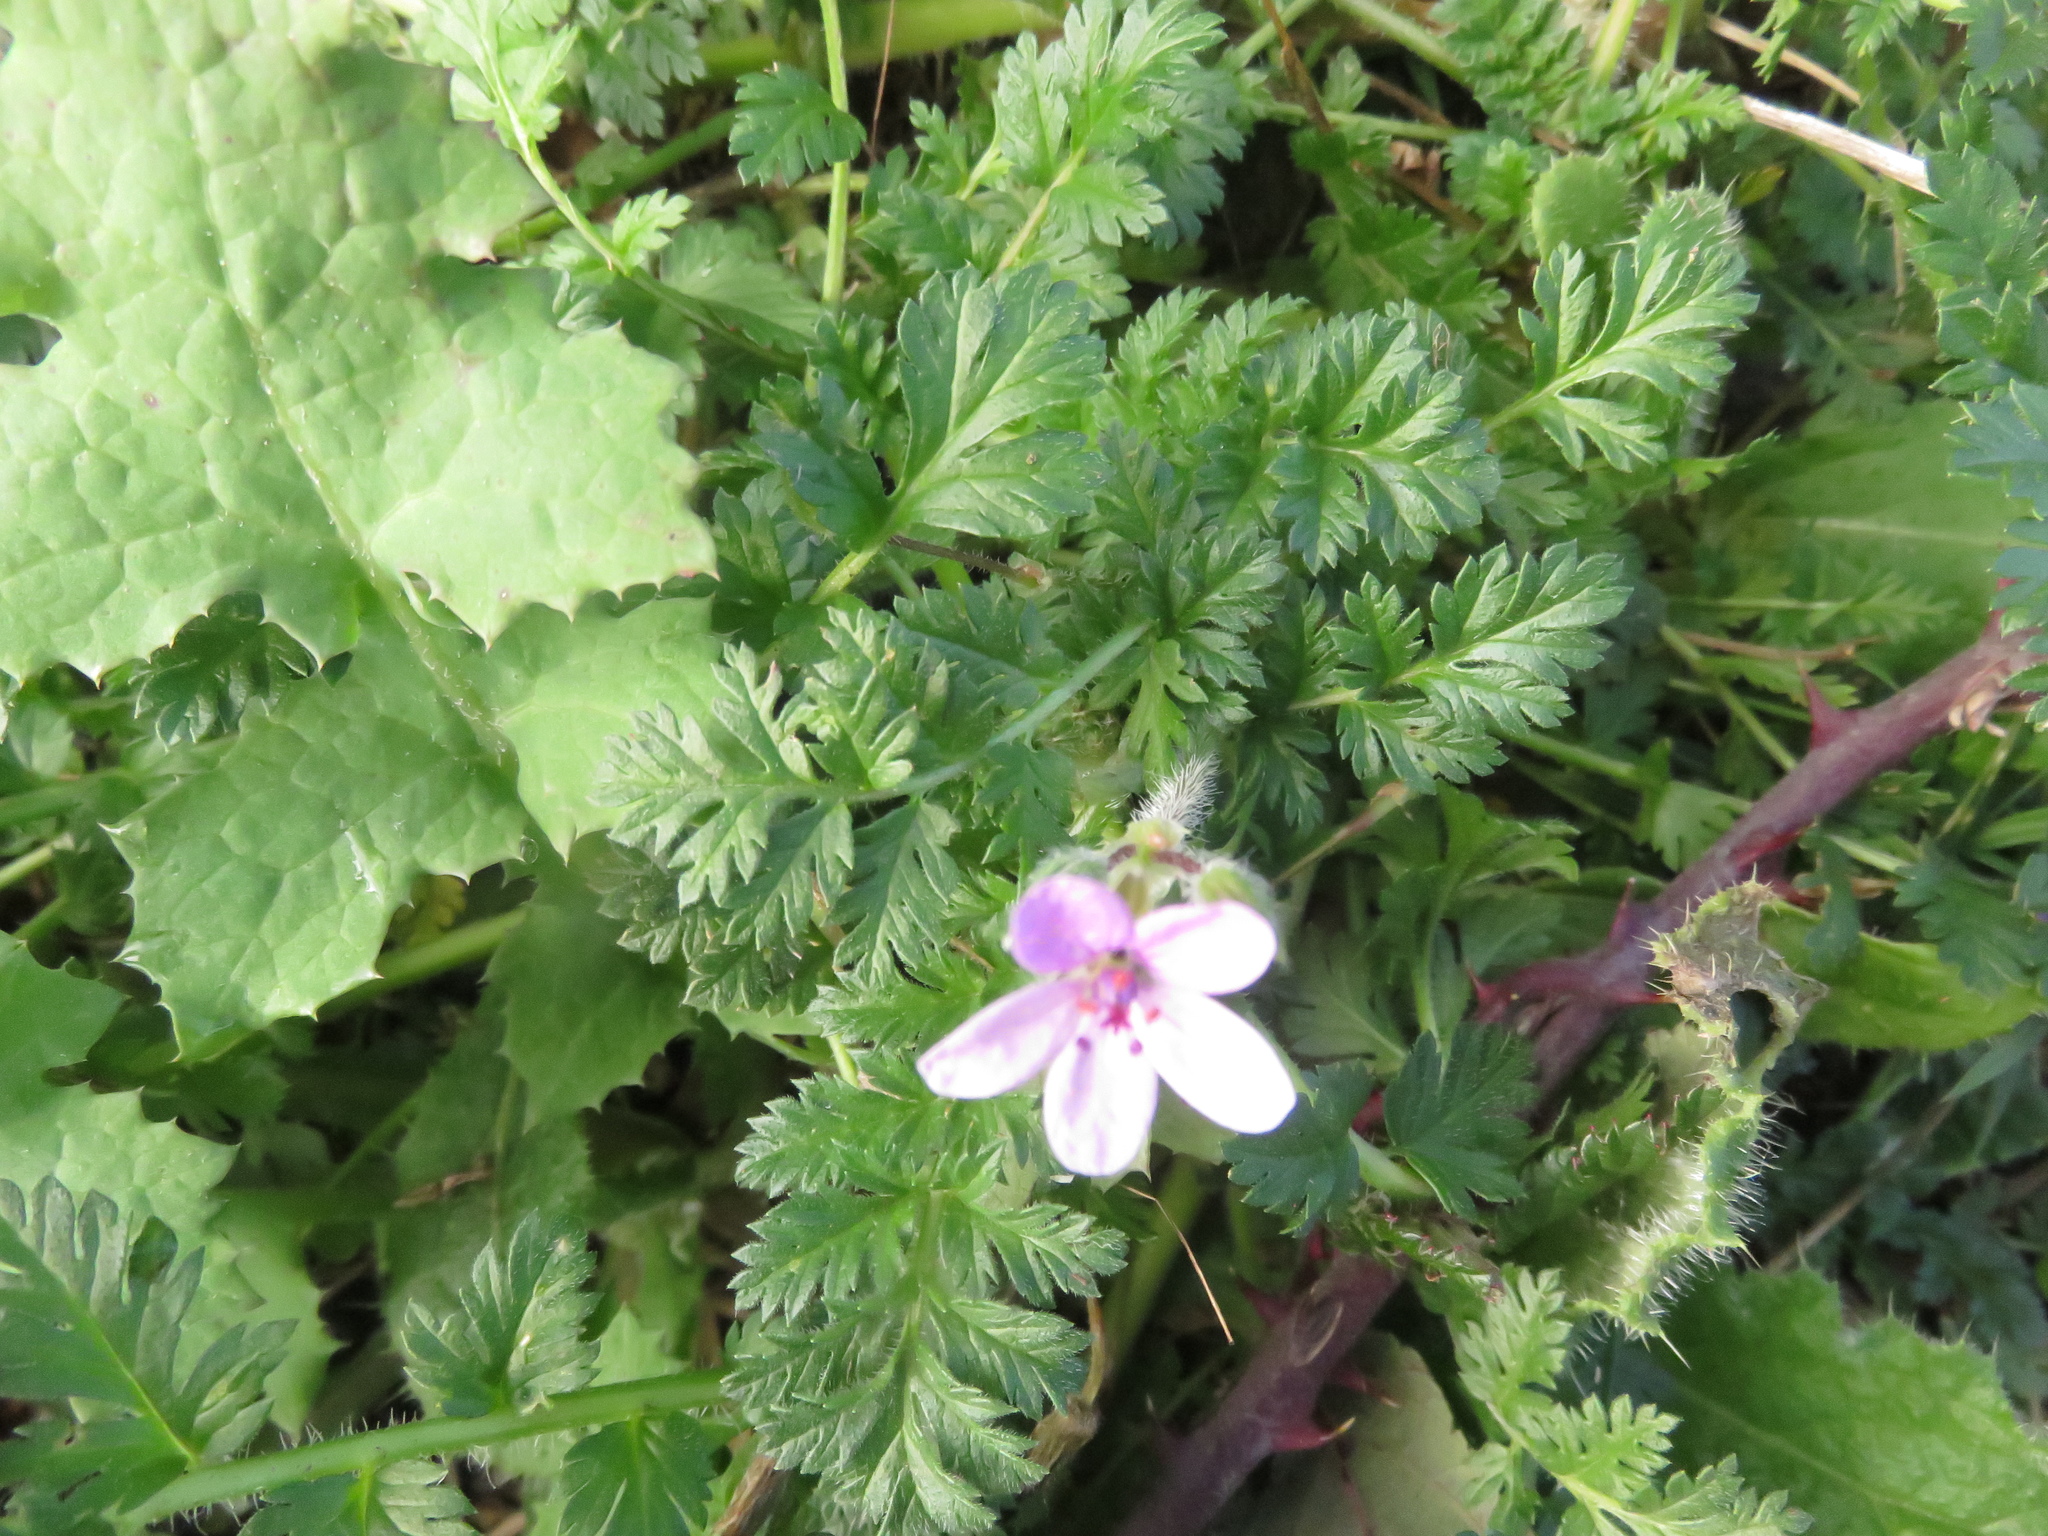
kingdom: Plantae
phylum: Tracheophyta
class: Magnoliopsida
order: Geraniales
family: Geraniaceae
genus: Erodium
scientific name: Erodium cicutarium
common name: Common stork's-bill
